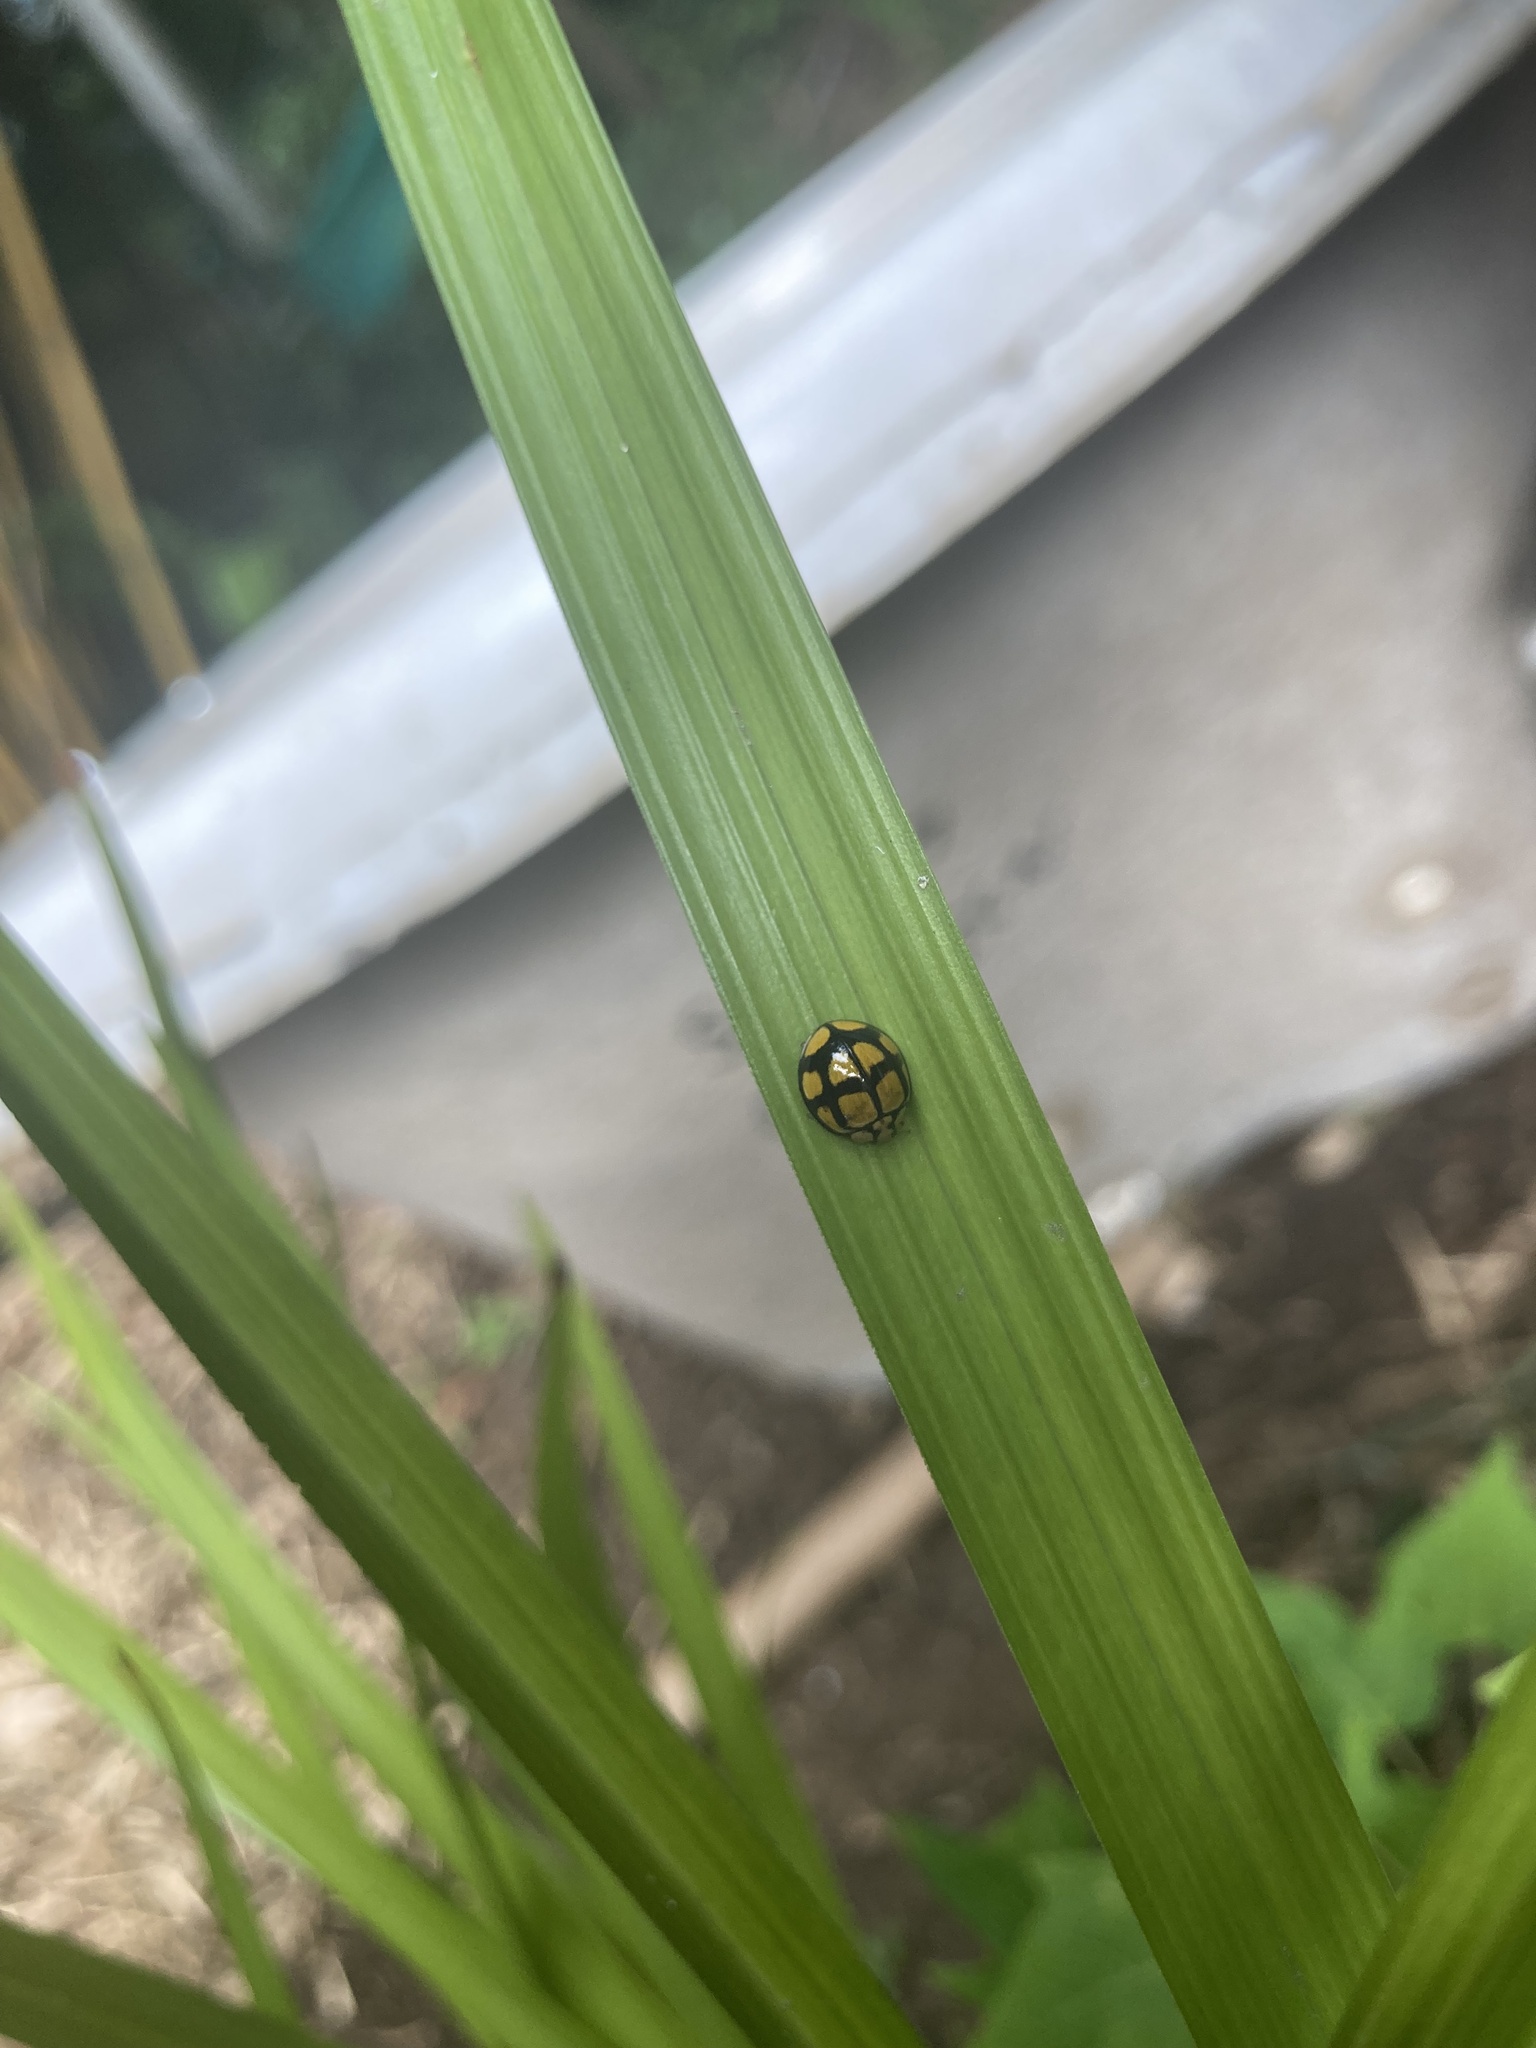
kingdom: Animalia
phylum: Arthropoda
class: Insecta
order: Coleoptera
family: Coccinellidae
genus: Harmonia
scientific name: Harmonia
